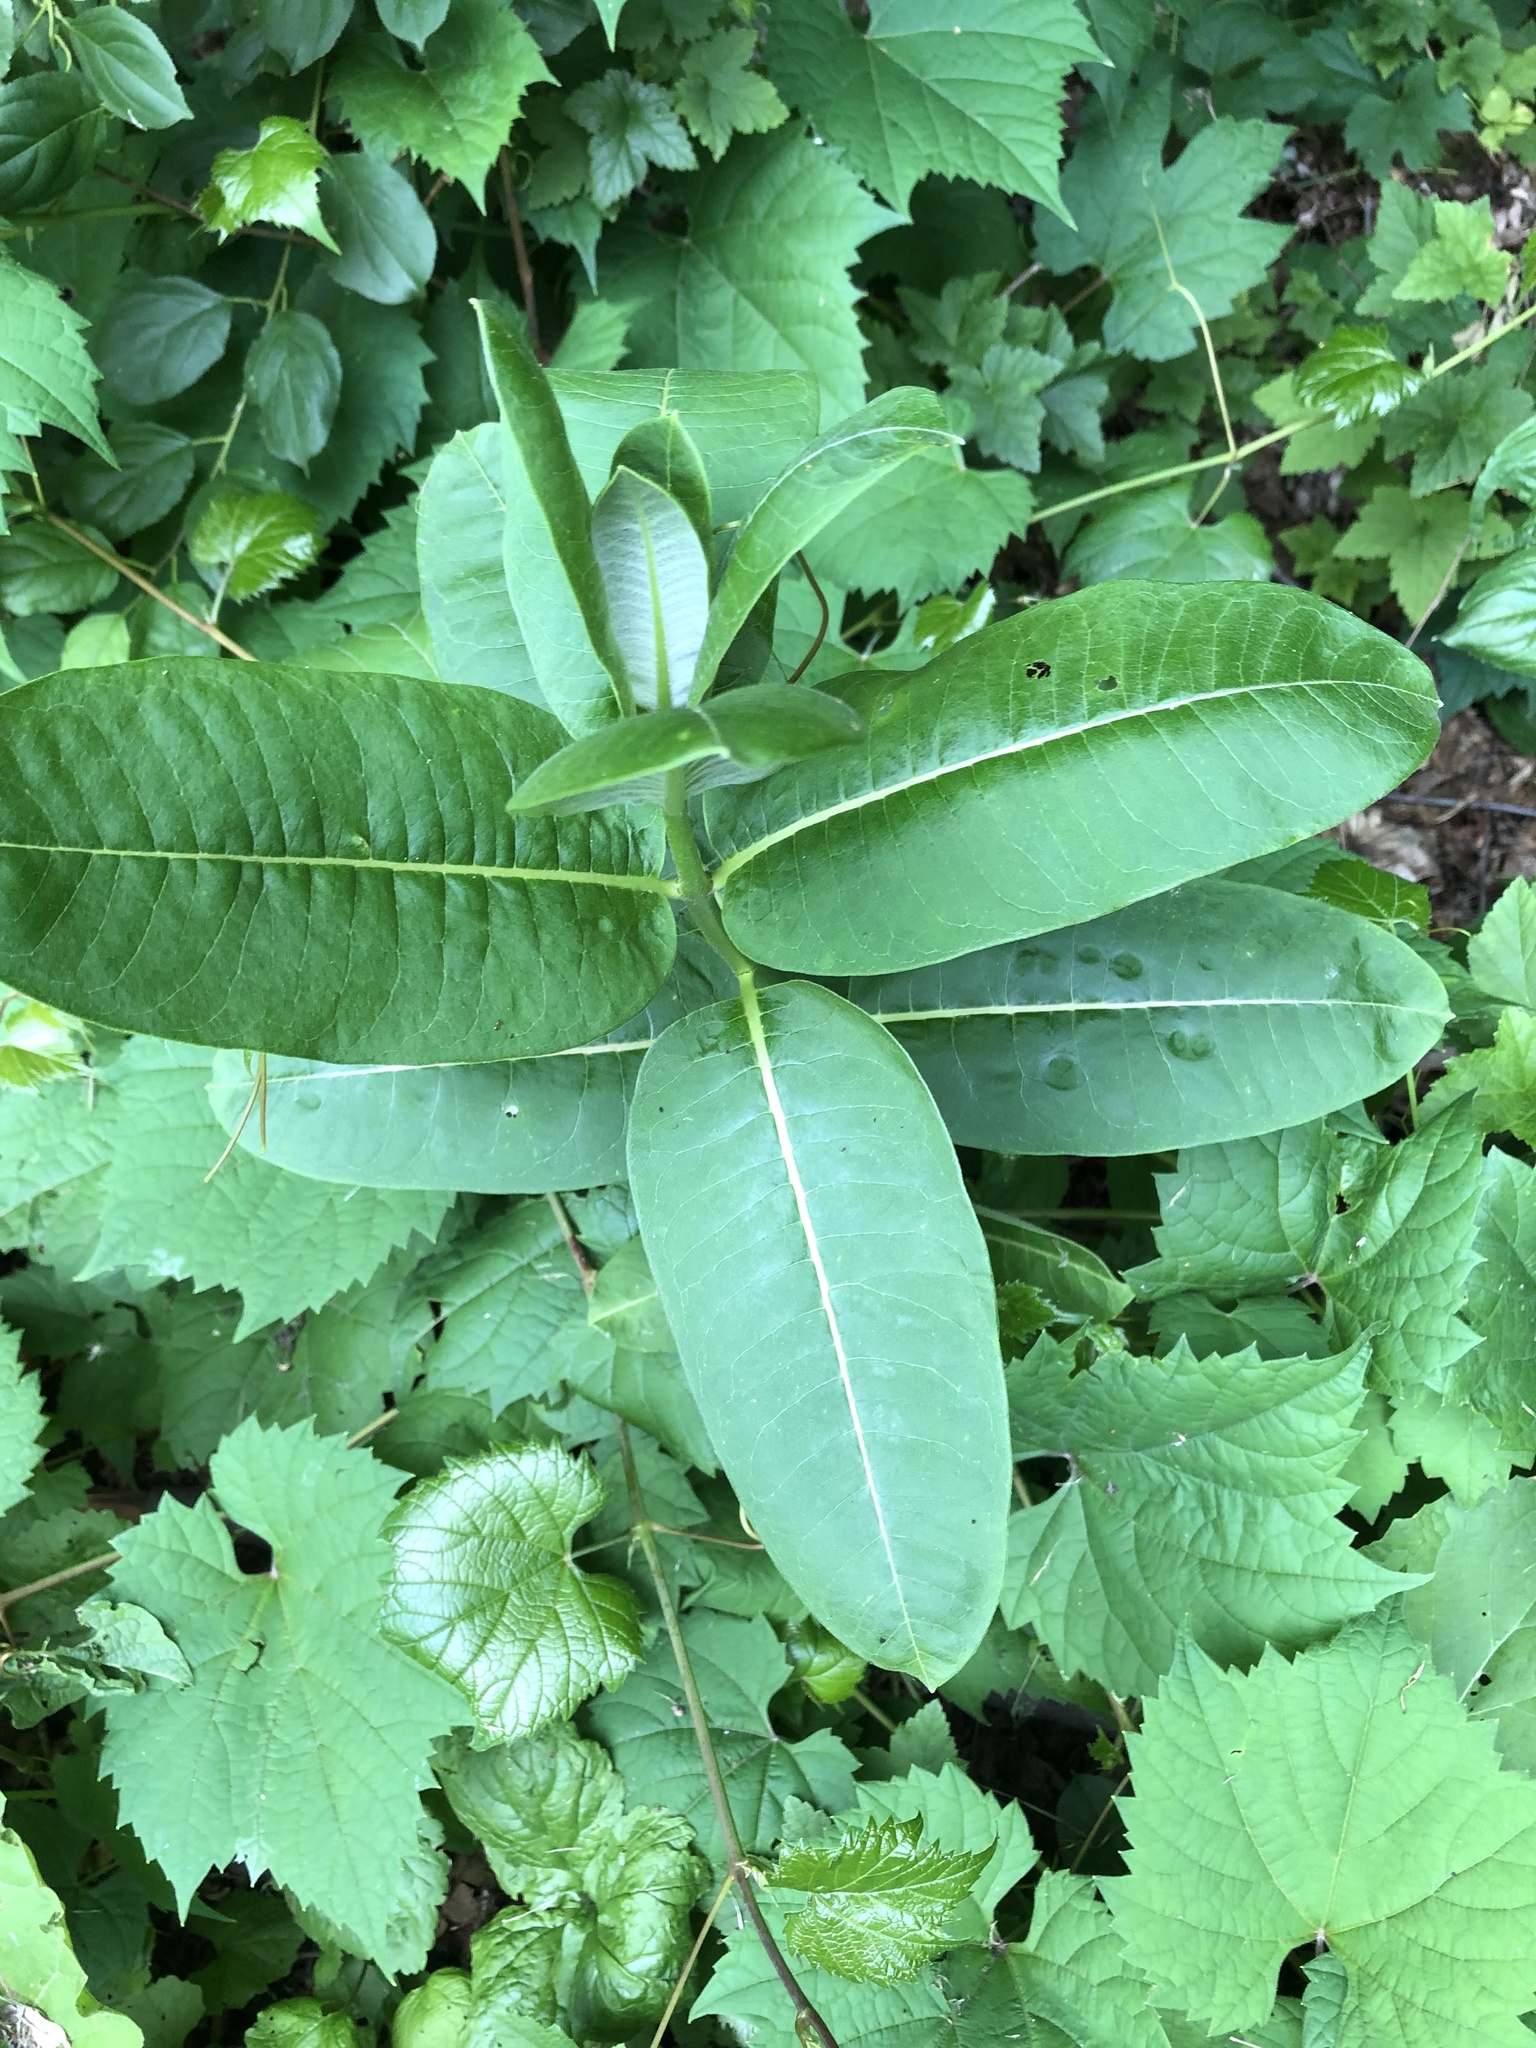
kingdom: Plantae
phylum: Tracheophyta
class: Magnoliopsida
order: Gentianales
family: Apocynaceae
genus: Asclepias
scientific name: Asclepias syriaca
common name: Common milkweed
